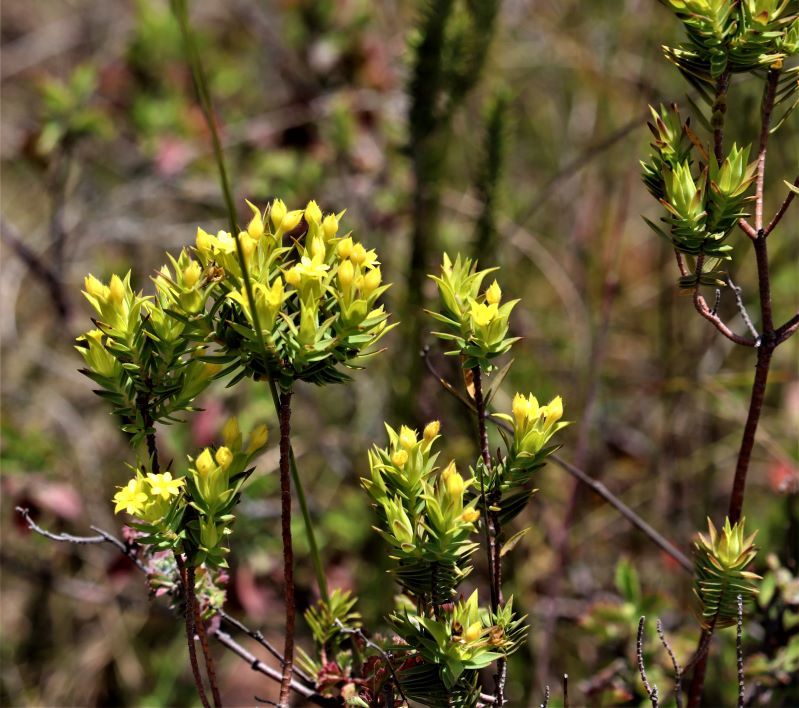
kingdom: Plantae
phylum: Tracheophyta
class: Magnoliopsida
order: Malvales
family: Thymelaeaceae
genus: Gnidia
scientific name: Gnidia juniperifolia
